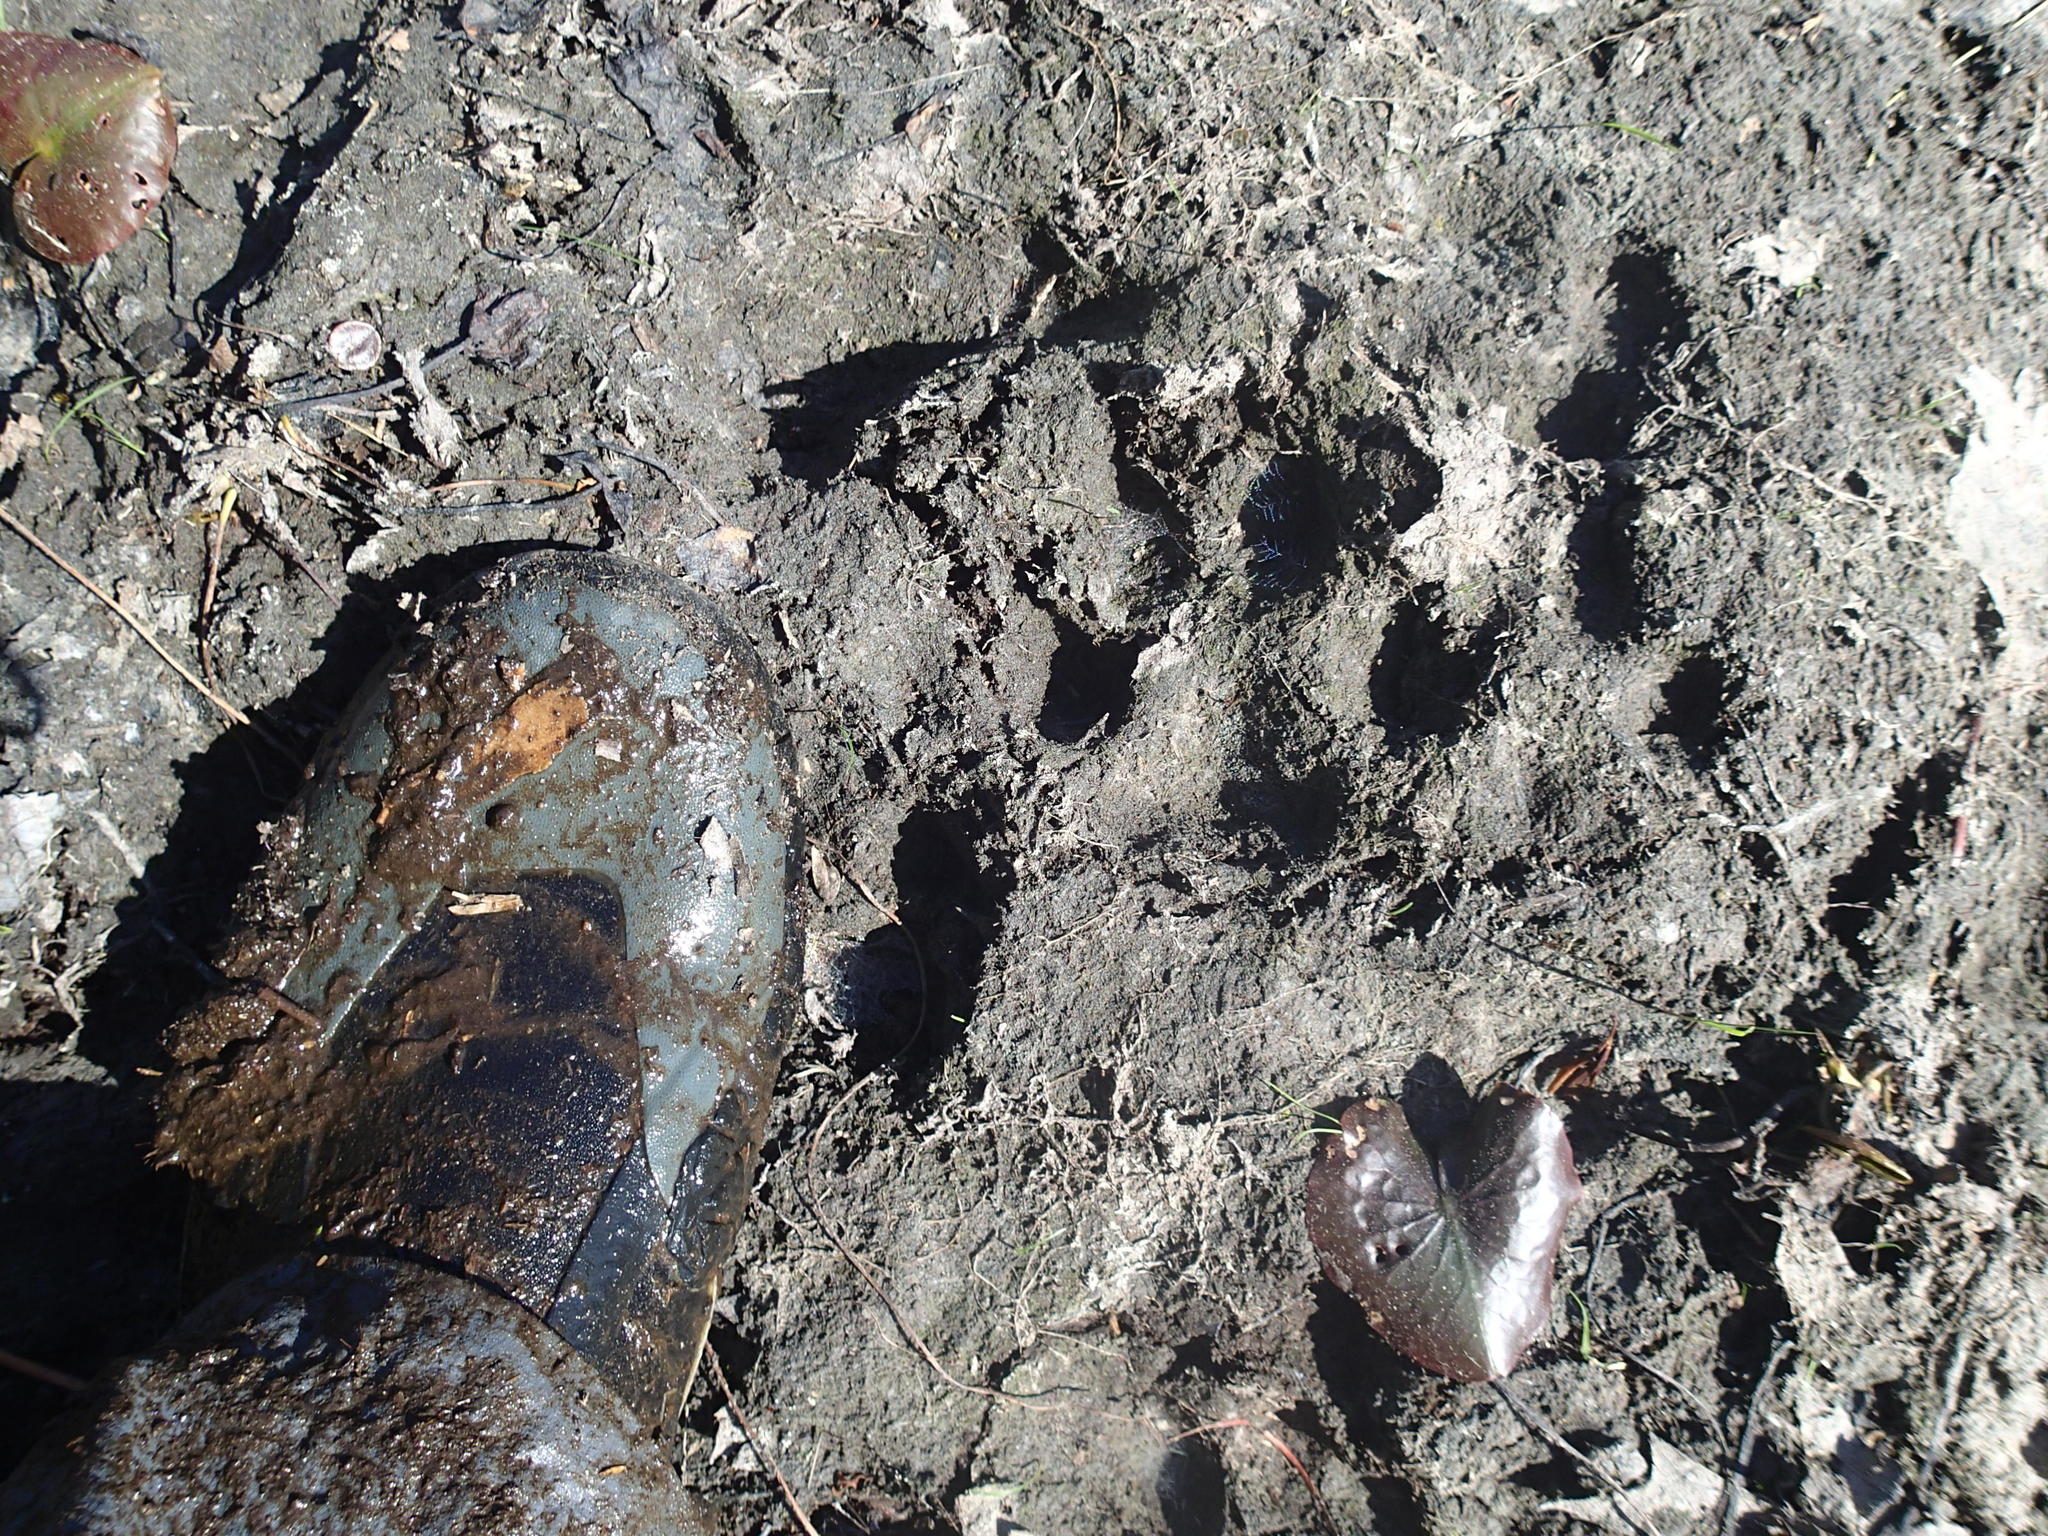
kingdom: Animalia
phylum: Chordata
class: Mammalia
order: Carnivora
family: Canidae
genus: Canis
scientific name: Canis
